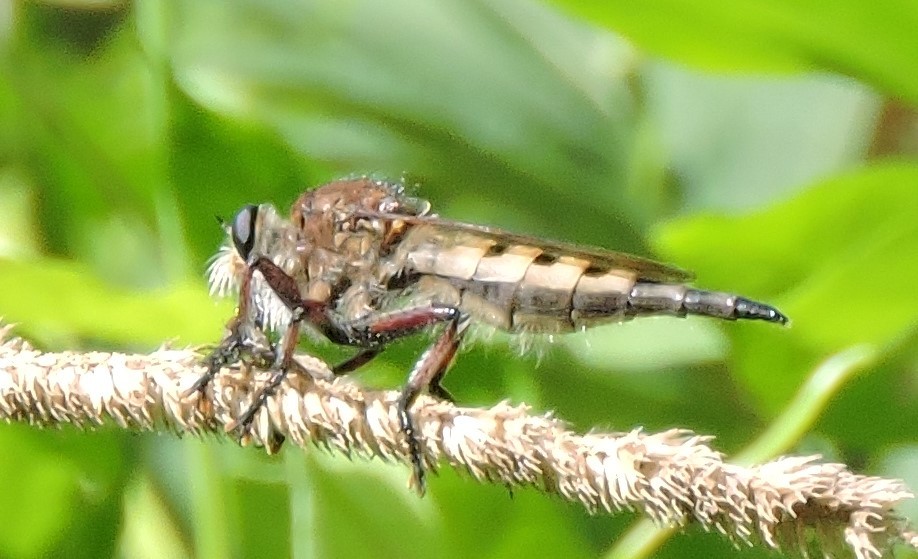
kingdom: Animalia
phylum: Arthropoda
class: Insecta
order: Diptera
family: Asilidae
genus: Promachus
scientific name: Promachus hinei
